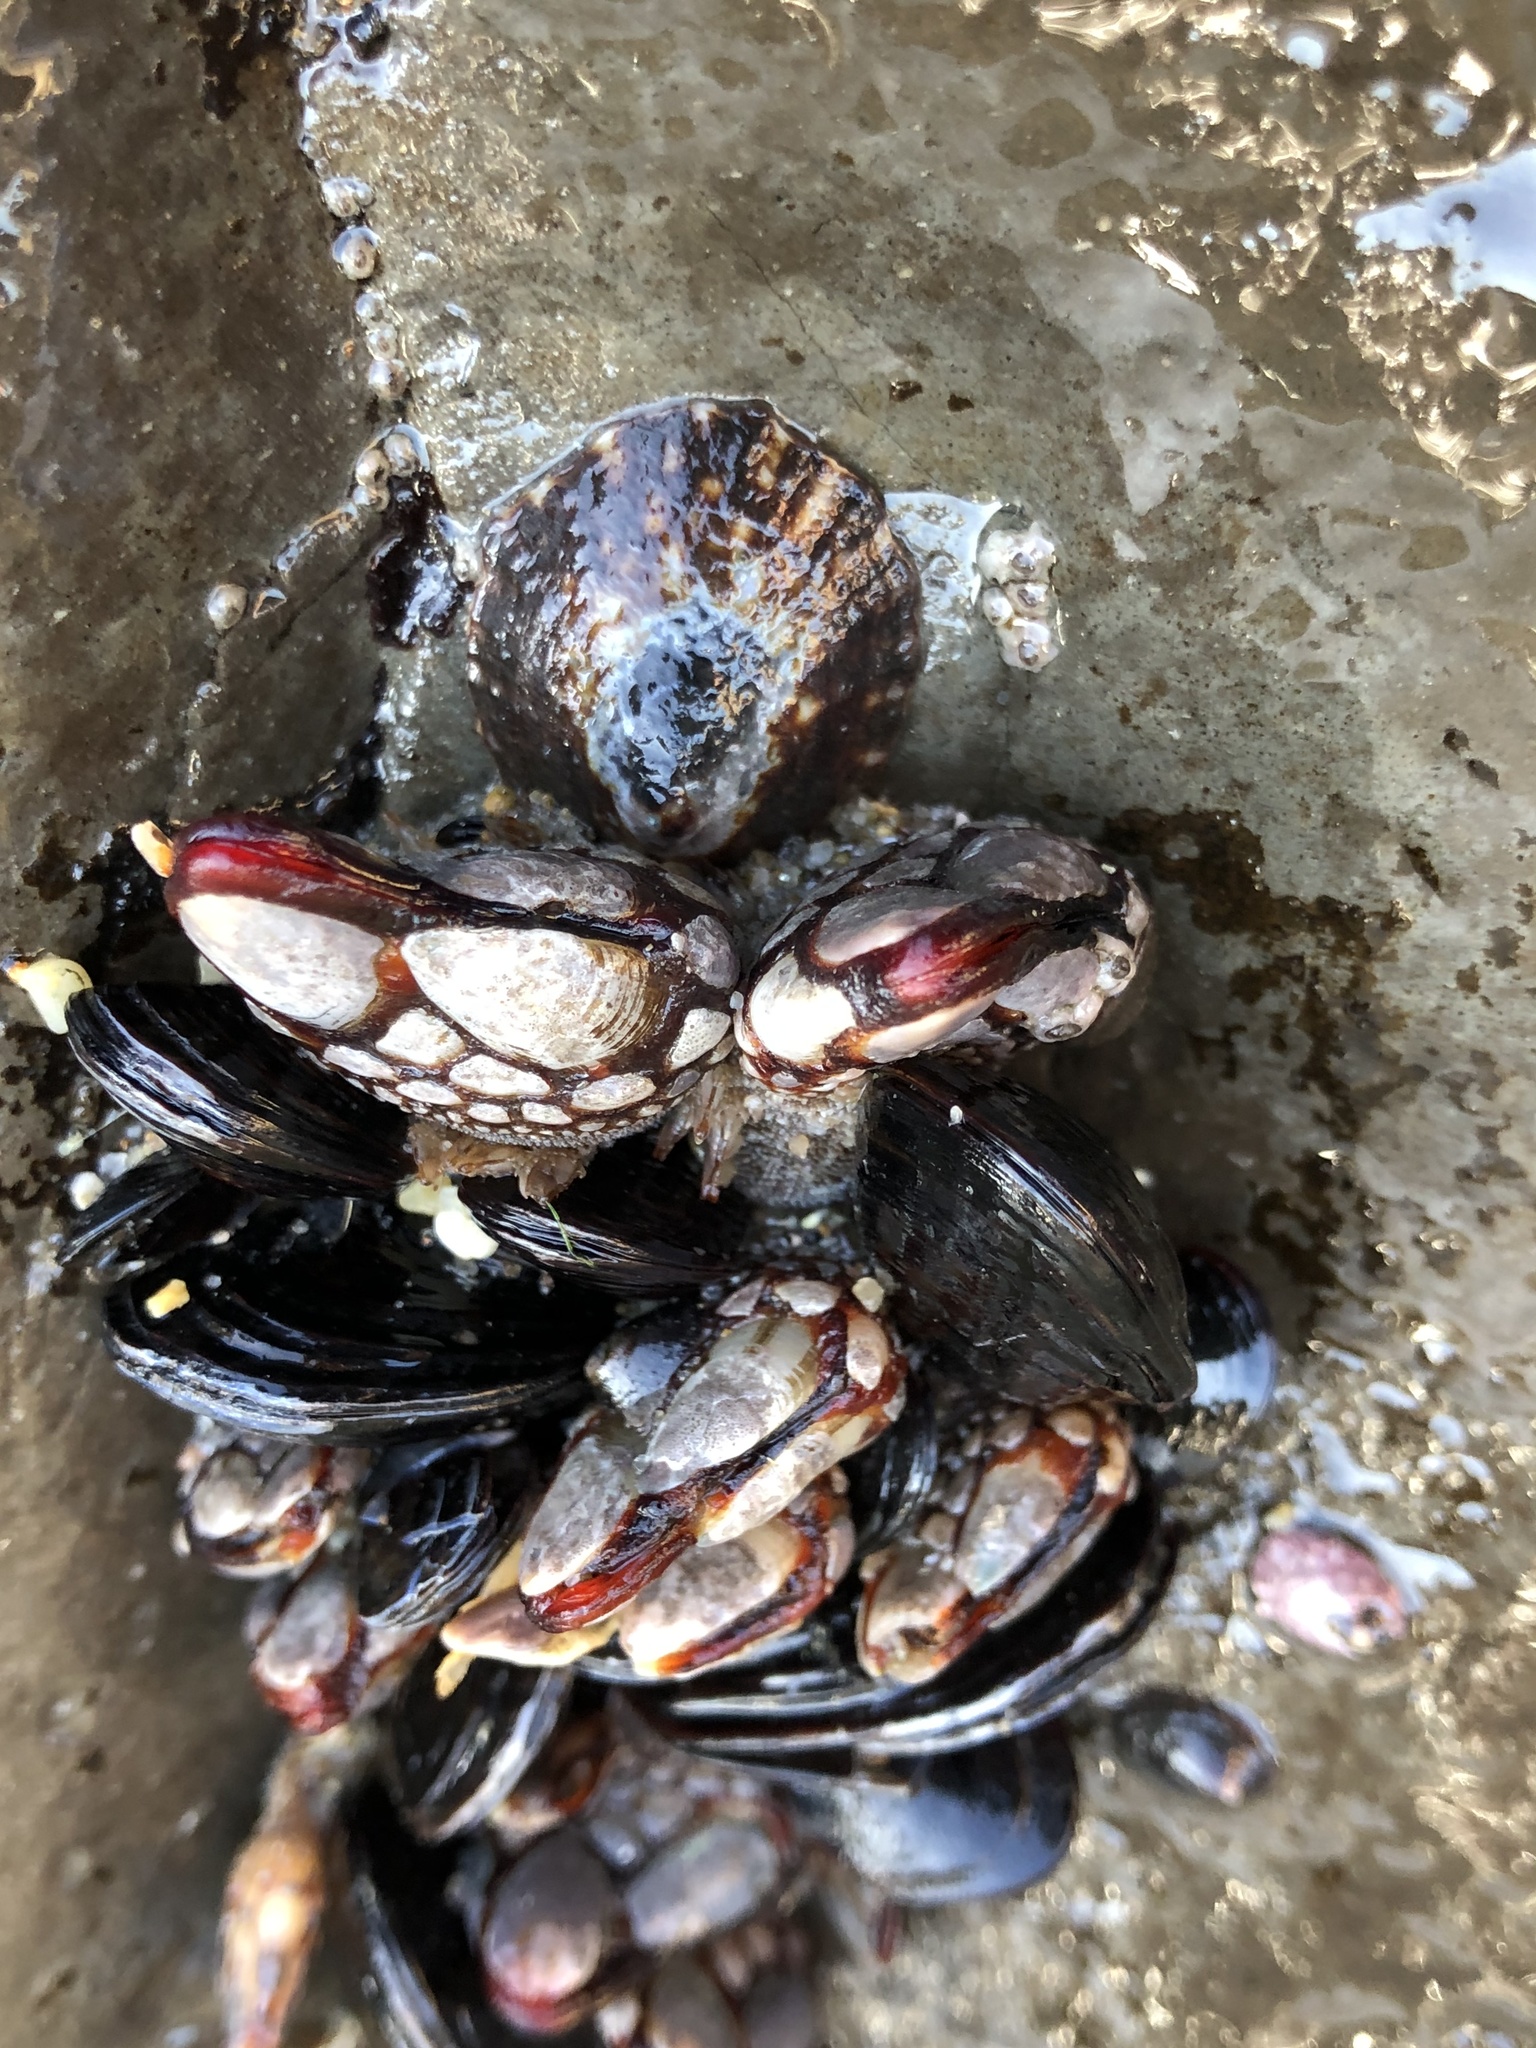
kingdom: Animalia
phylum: Arthropoda
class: Maxillopoda
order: Pedunculata
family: Pollicipedidae
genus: Pollicipes
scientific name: Pollicipes polymerus
